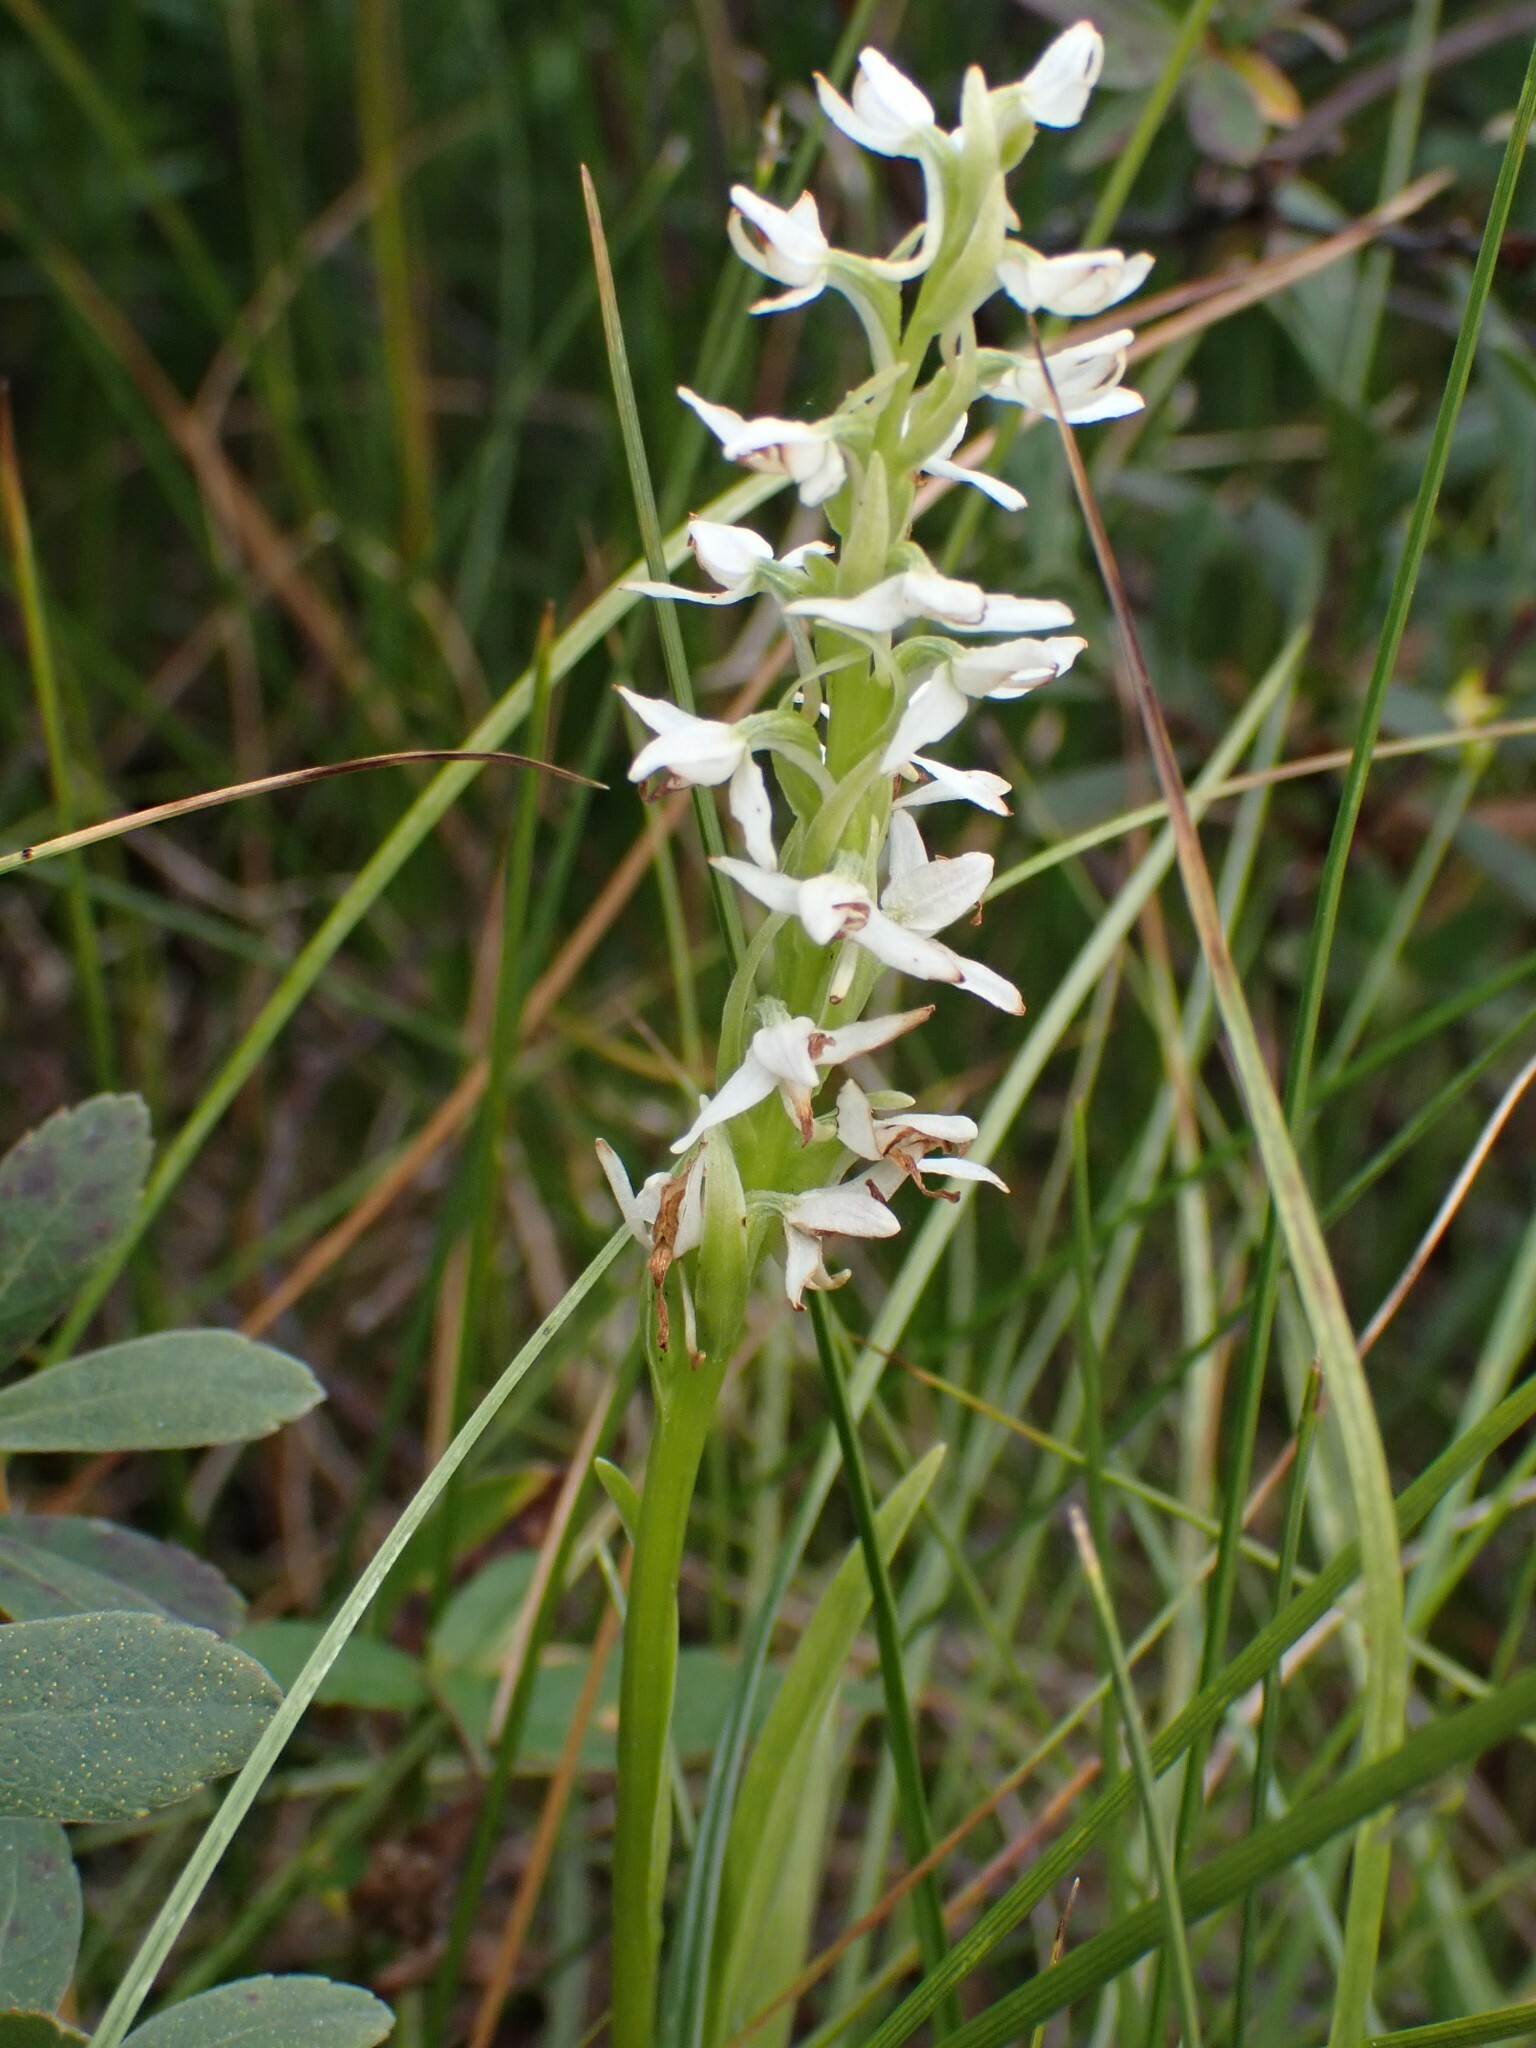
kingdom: Plantae
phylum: Tracheophyta
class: Liliopsida
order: Asparagales
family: Orchidaceae
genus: Platanthera
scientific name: Platanthera dilatata
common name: Bog candles
